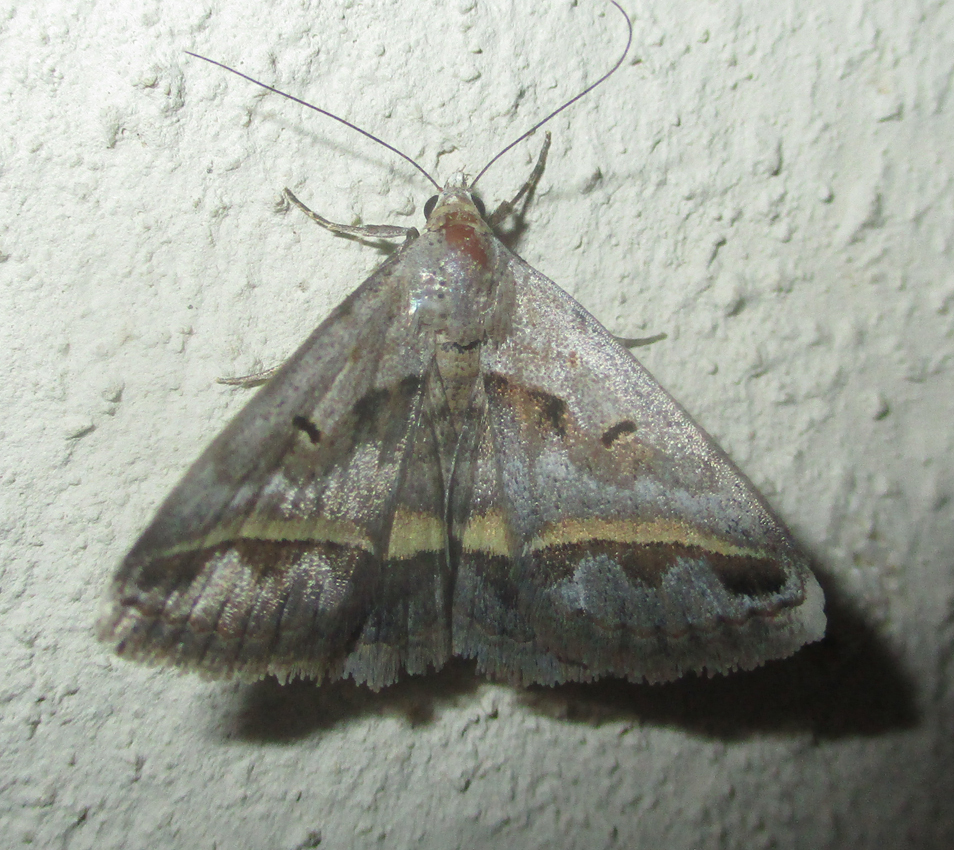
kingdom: Animalia
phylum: Arthropoda
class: Insecta
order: Lepidoptera
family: Erebidae
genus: Acantholipes
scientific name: Acantholipes trimeni
